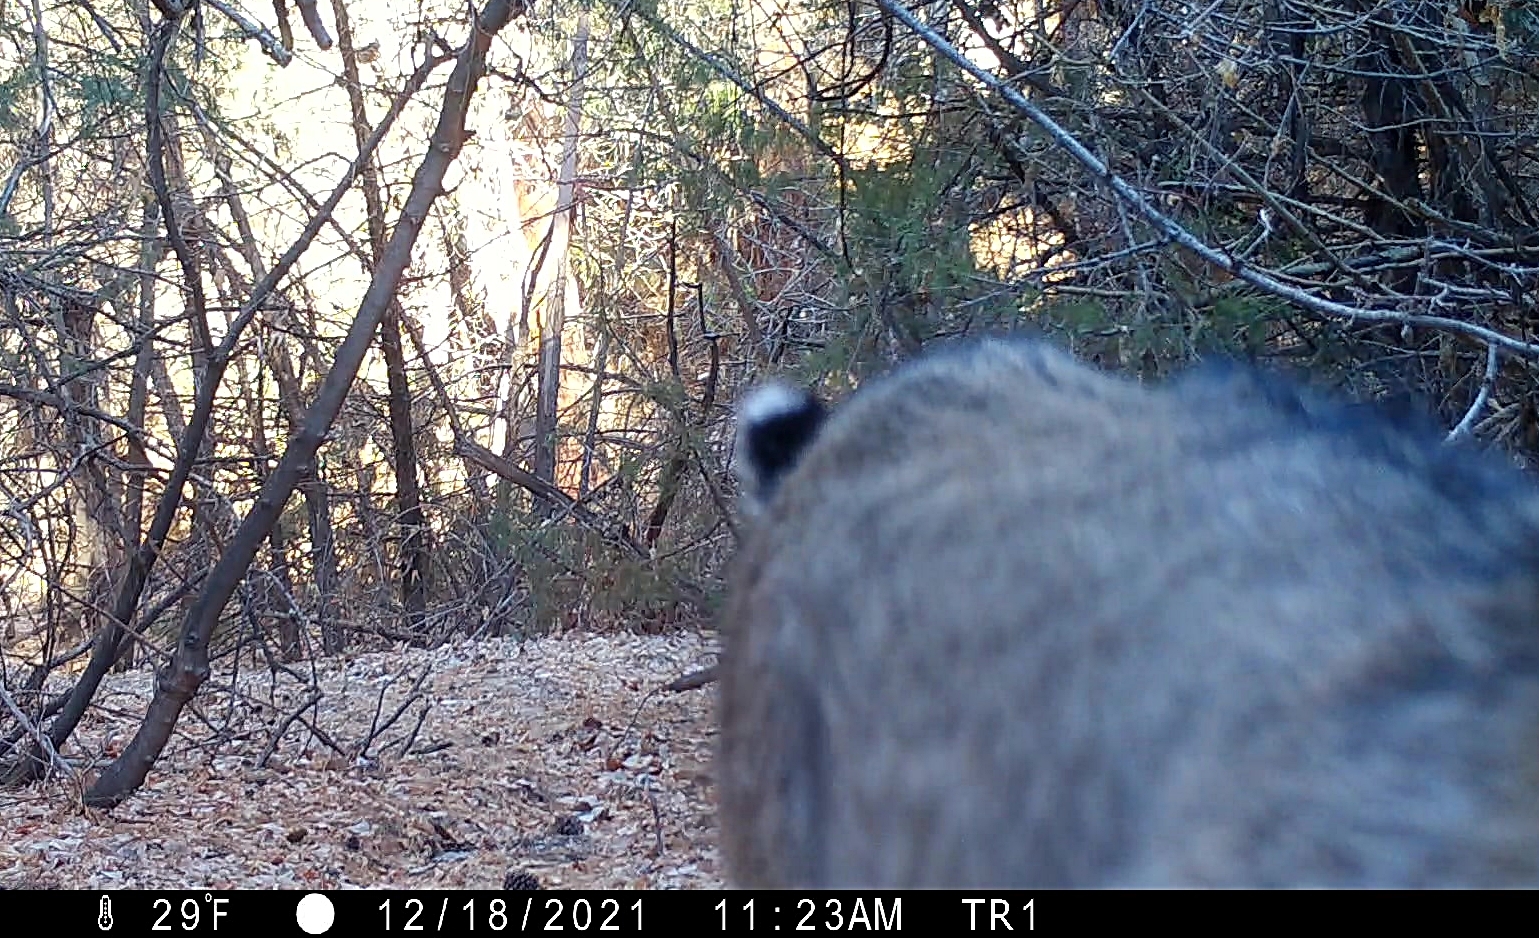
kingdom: Animalia
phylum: Chordata
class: Mammalia
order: Carnivora
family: Felidae
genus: Lynx
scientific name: Lynx rufus
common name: Bobcat
